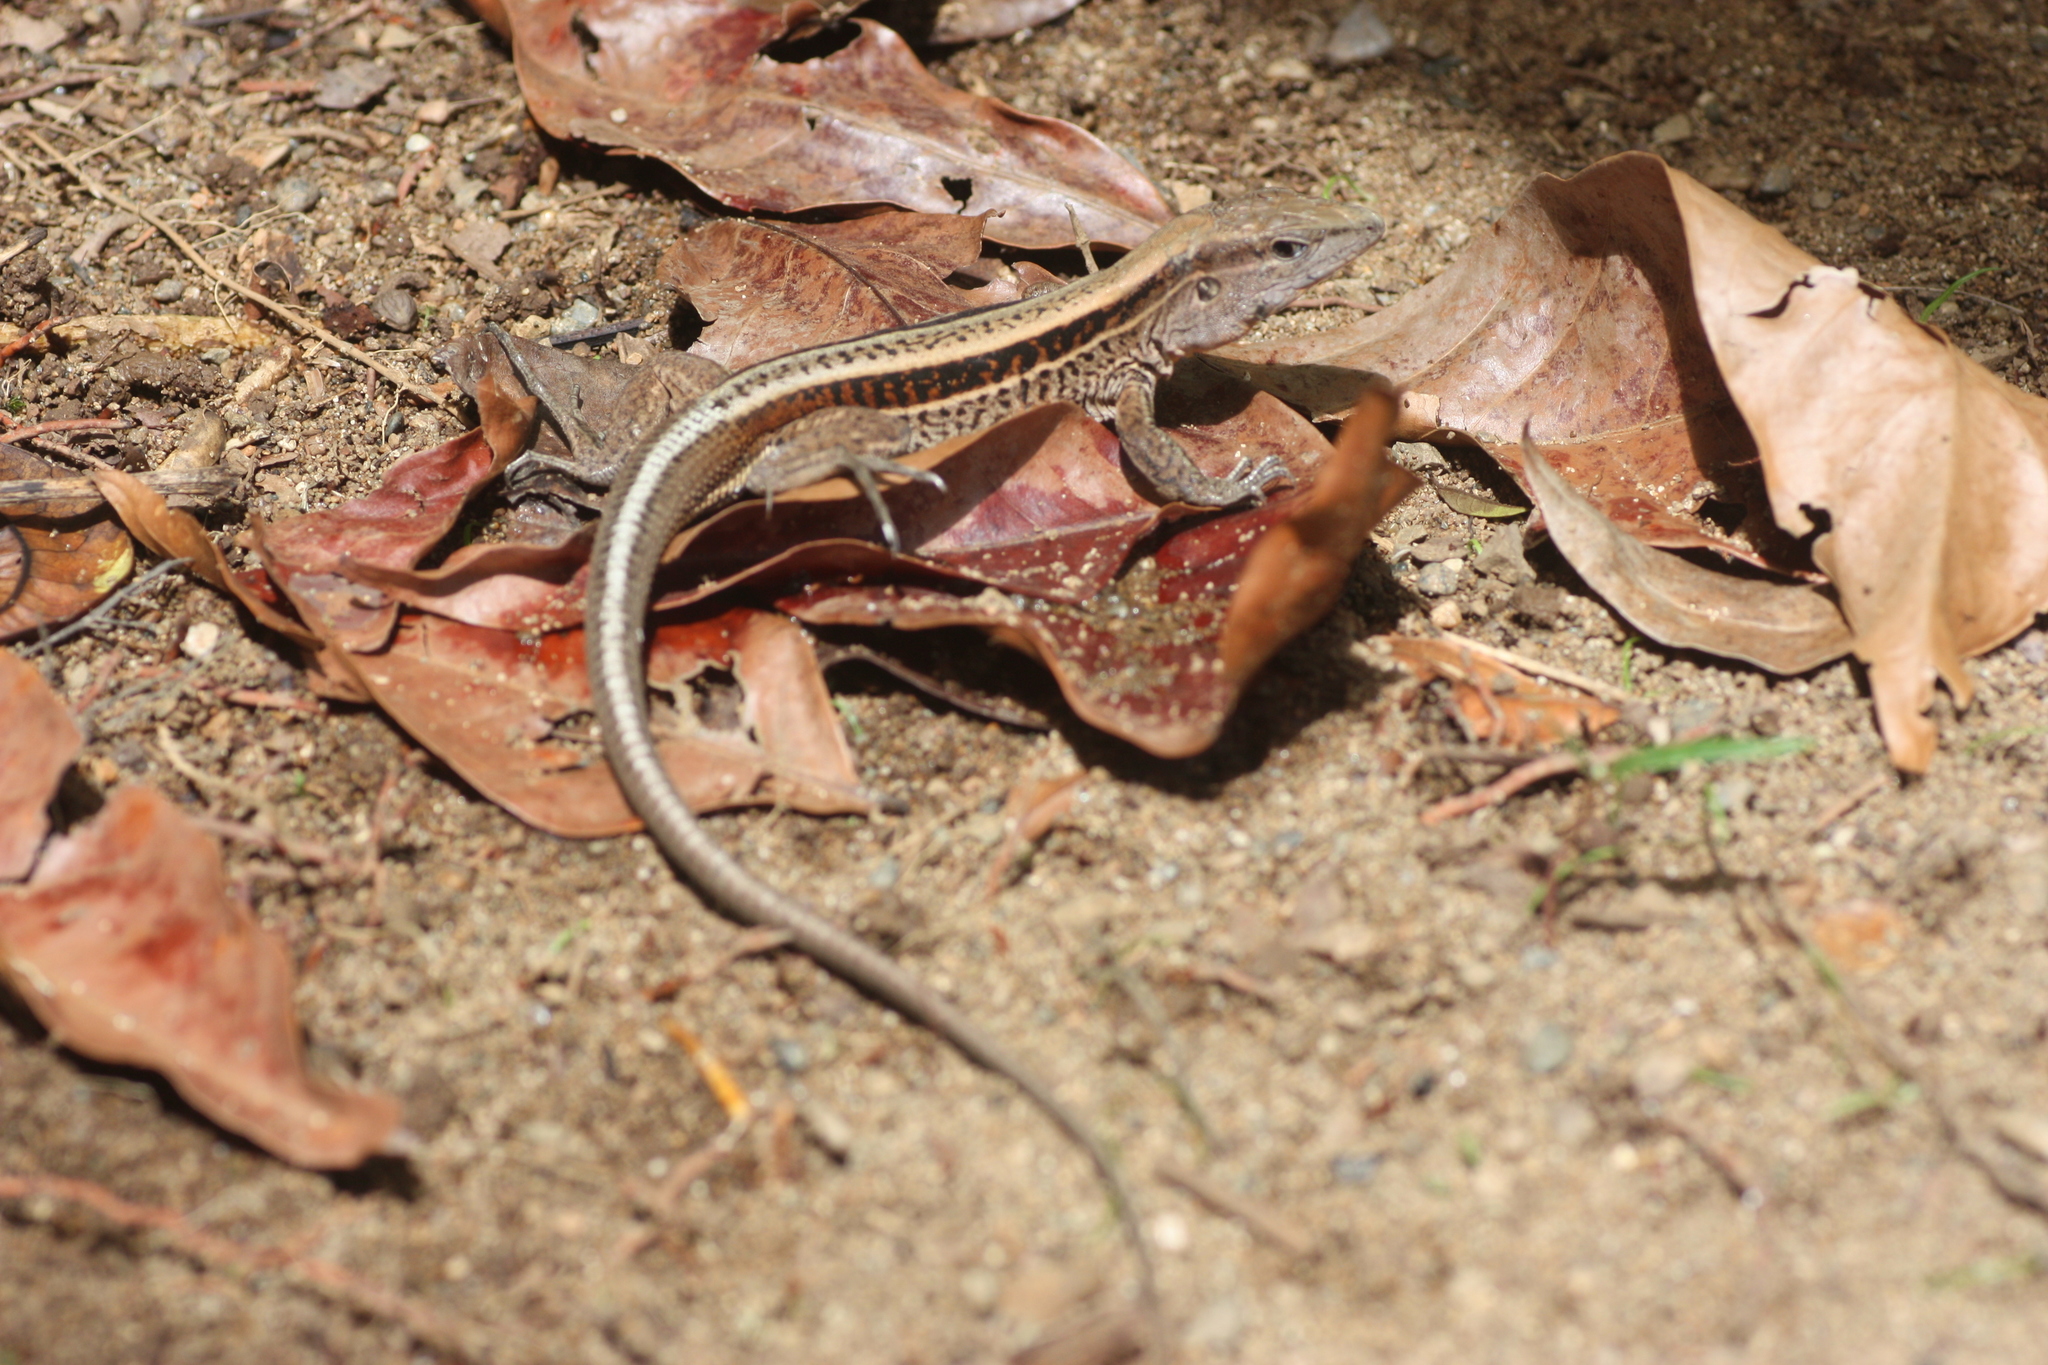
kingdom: Animalia
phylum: Chordata
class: Squamata
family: Teiidae
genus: Holcosus
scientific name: Holcosus quadrilineatus
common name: Four-lined ameiva
